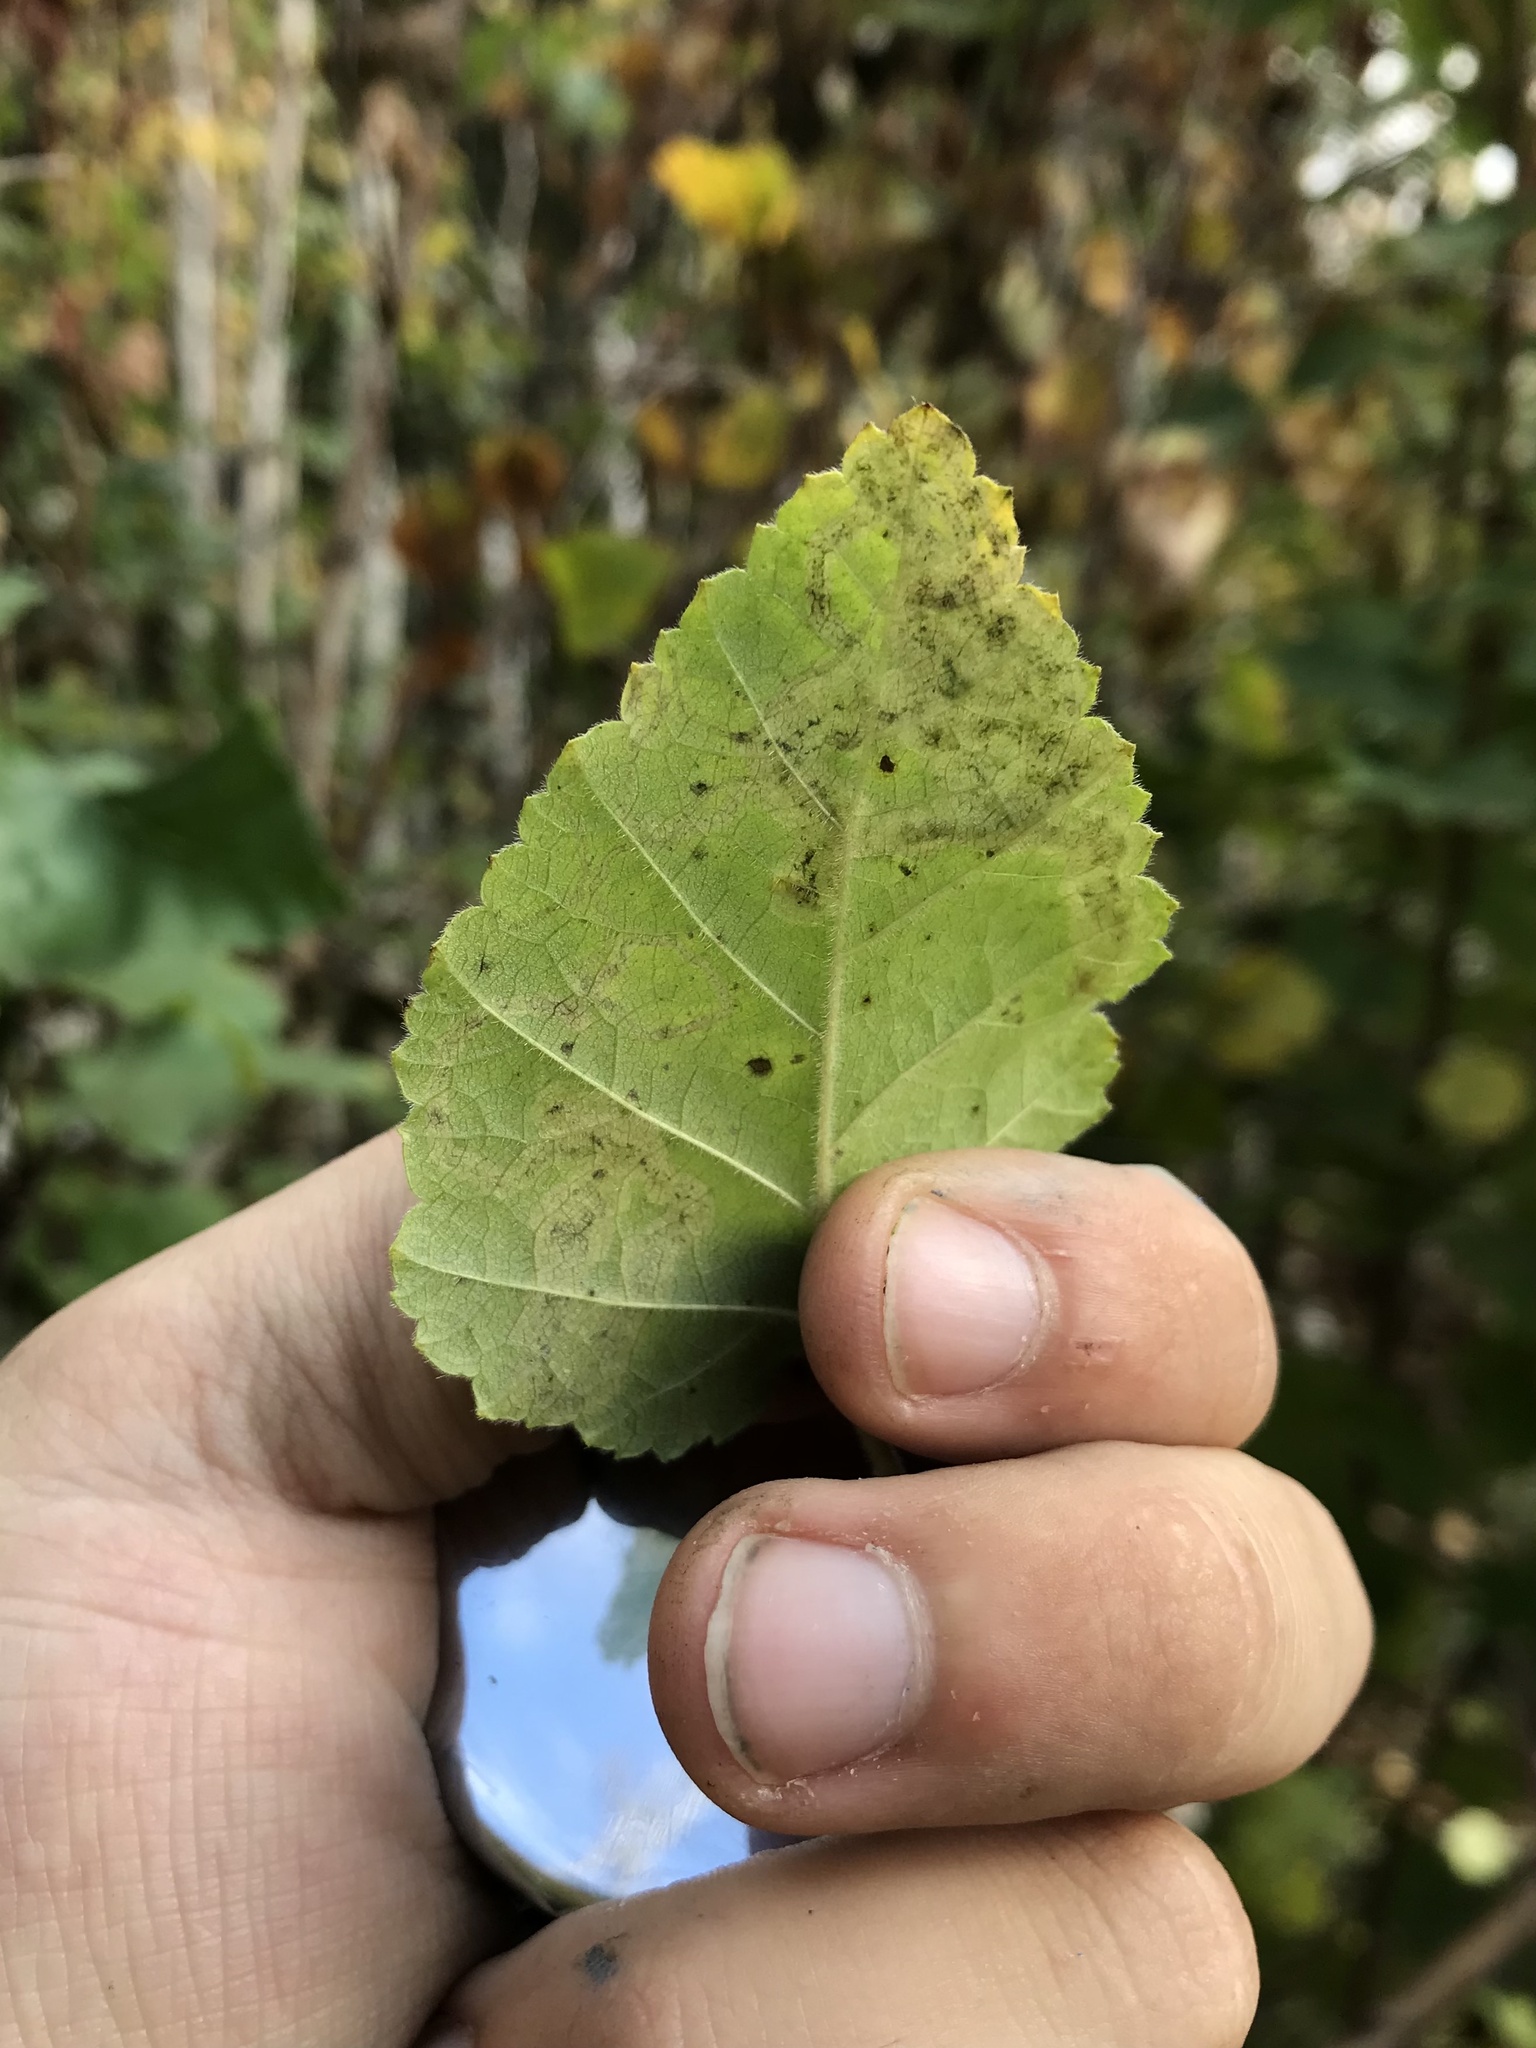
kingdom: Animalia
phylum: Arthropoda
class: Insecta
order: Diptera
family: Agromyzidae
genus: Agromyza
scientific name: Agromyza alnibetulae
